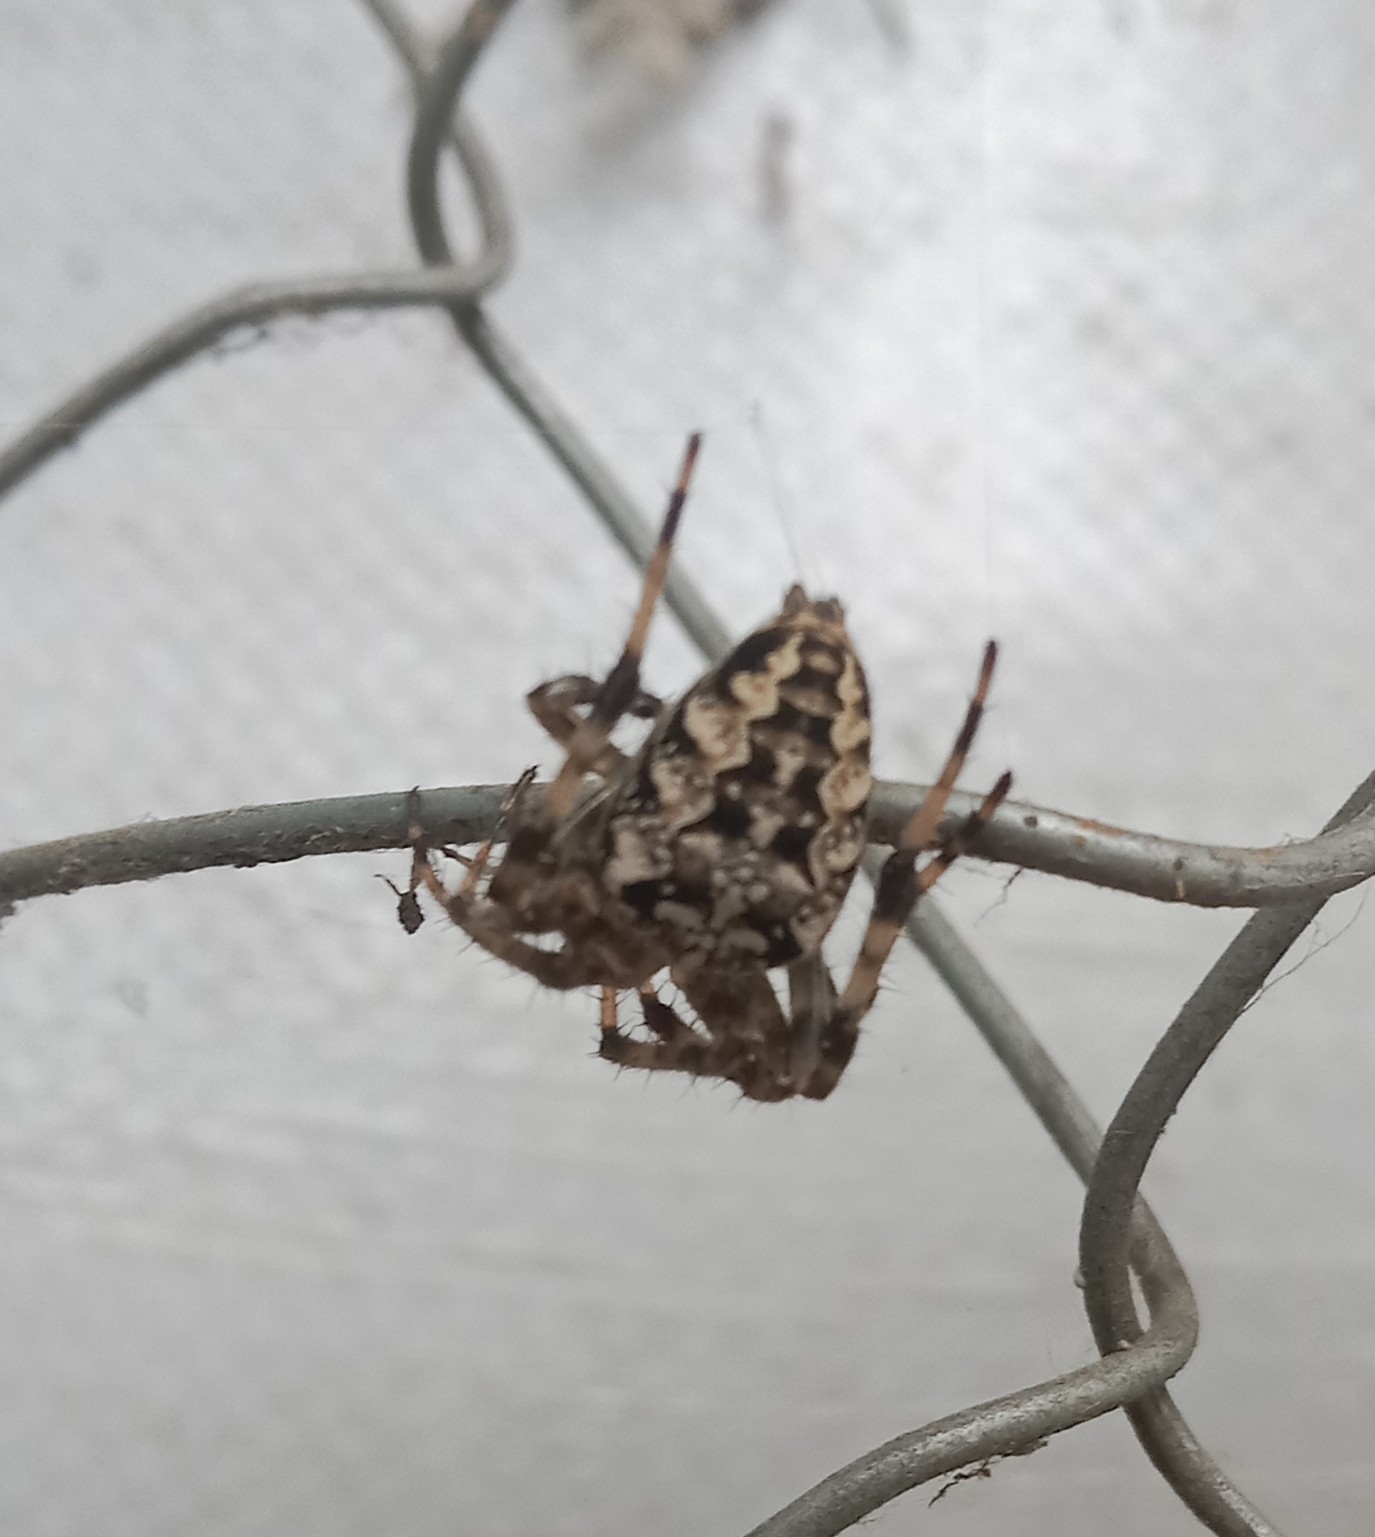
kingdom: Animalia
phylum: Arthropoda
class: Arachnida
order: Araneae
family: Araneidae
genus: Araneus
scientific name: Araneus diadematus
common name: Cross orbweaver
